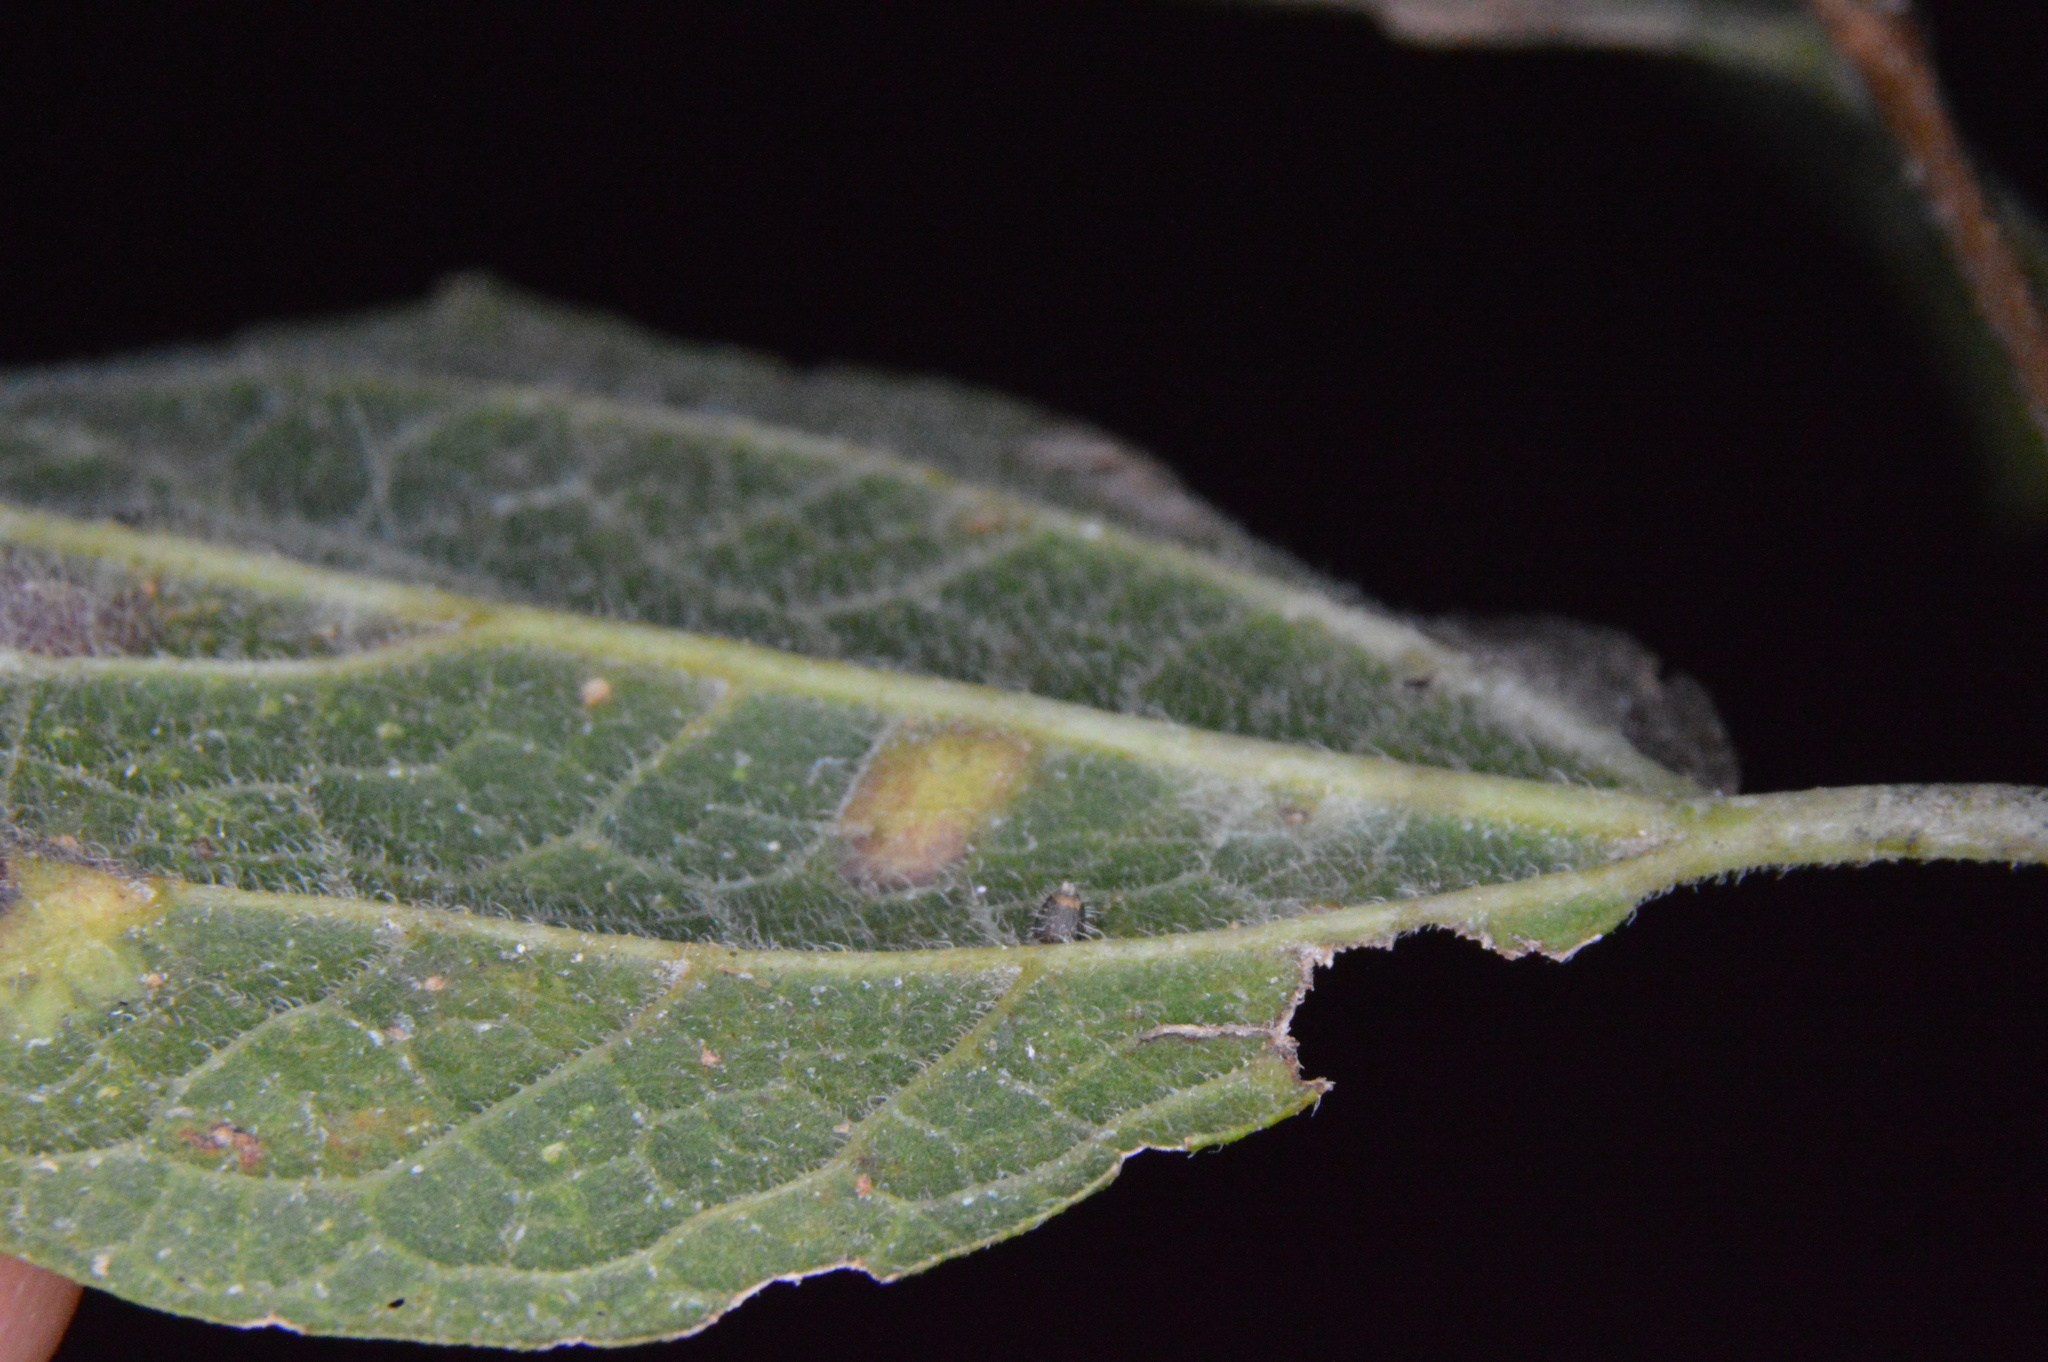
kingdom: Animalia
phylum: Arthropoda
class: Insecta
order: Diptera
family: Cecidomyiidae
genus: Celticecis
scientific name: Celticecis cupiformis
